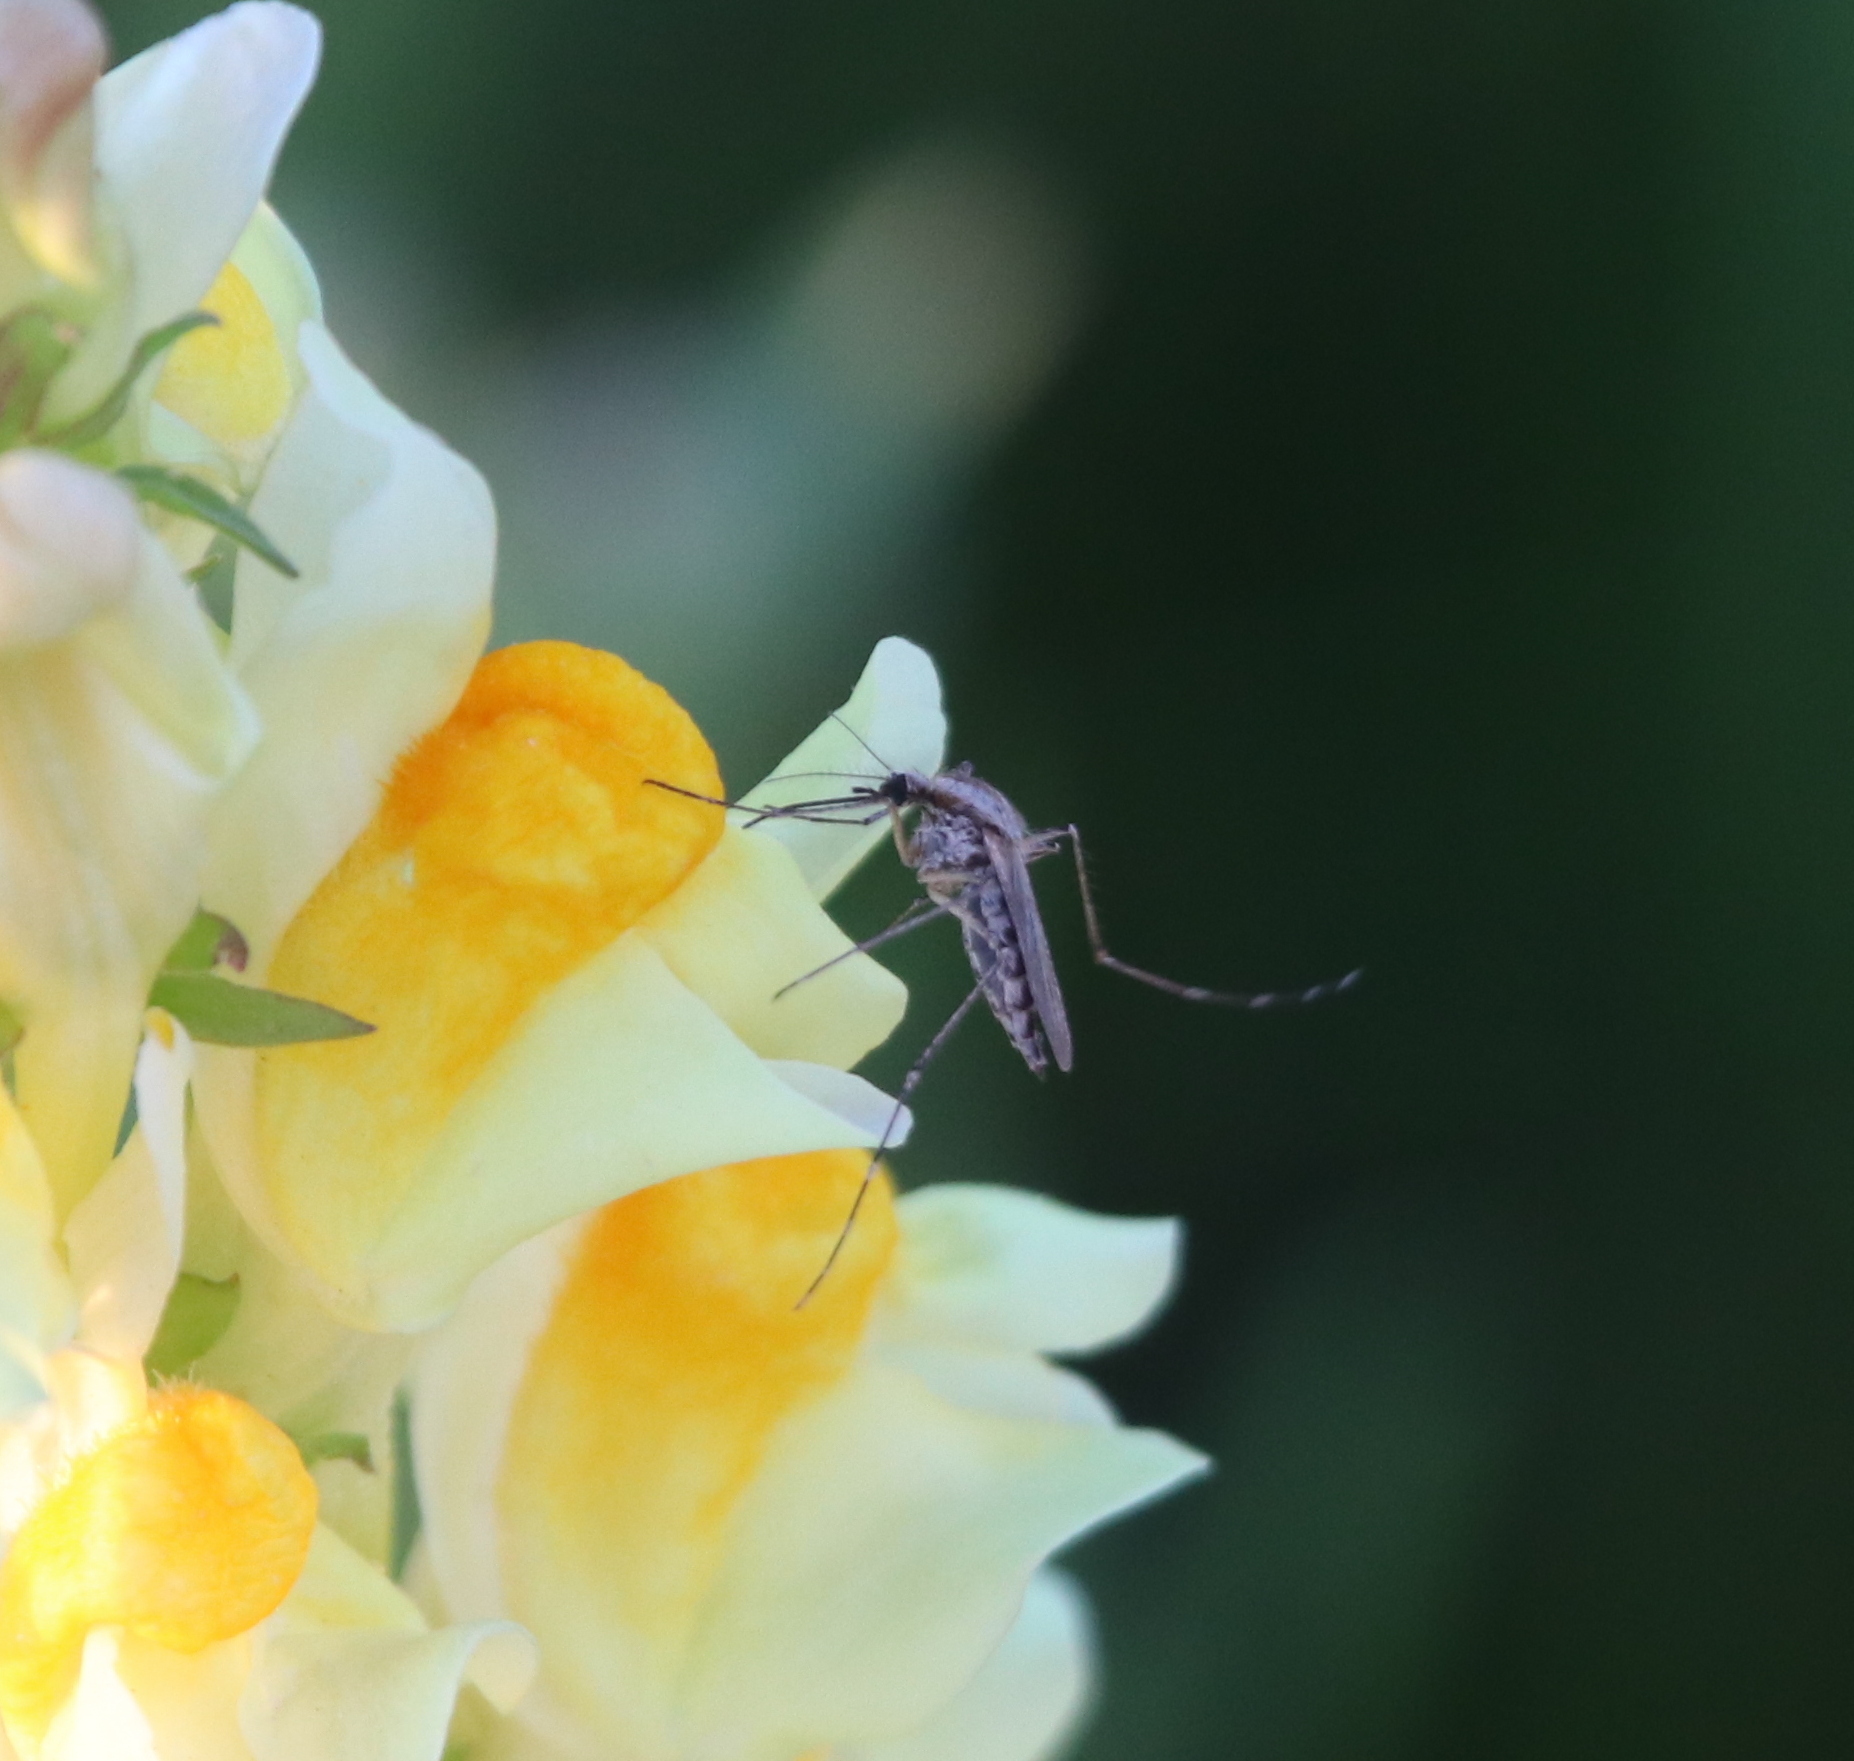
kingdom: Animalia
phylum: Arthropoda
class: Insecta
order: Diptera
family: Culicidae
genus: Aedes
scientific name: Aedes dorsalis
